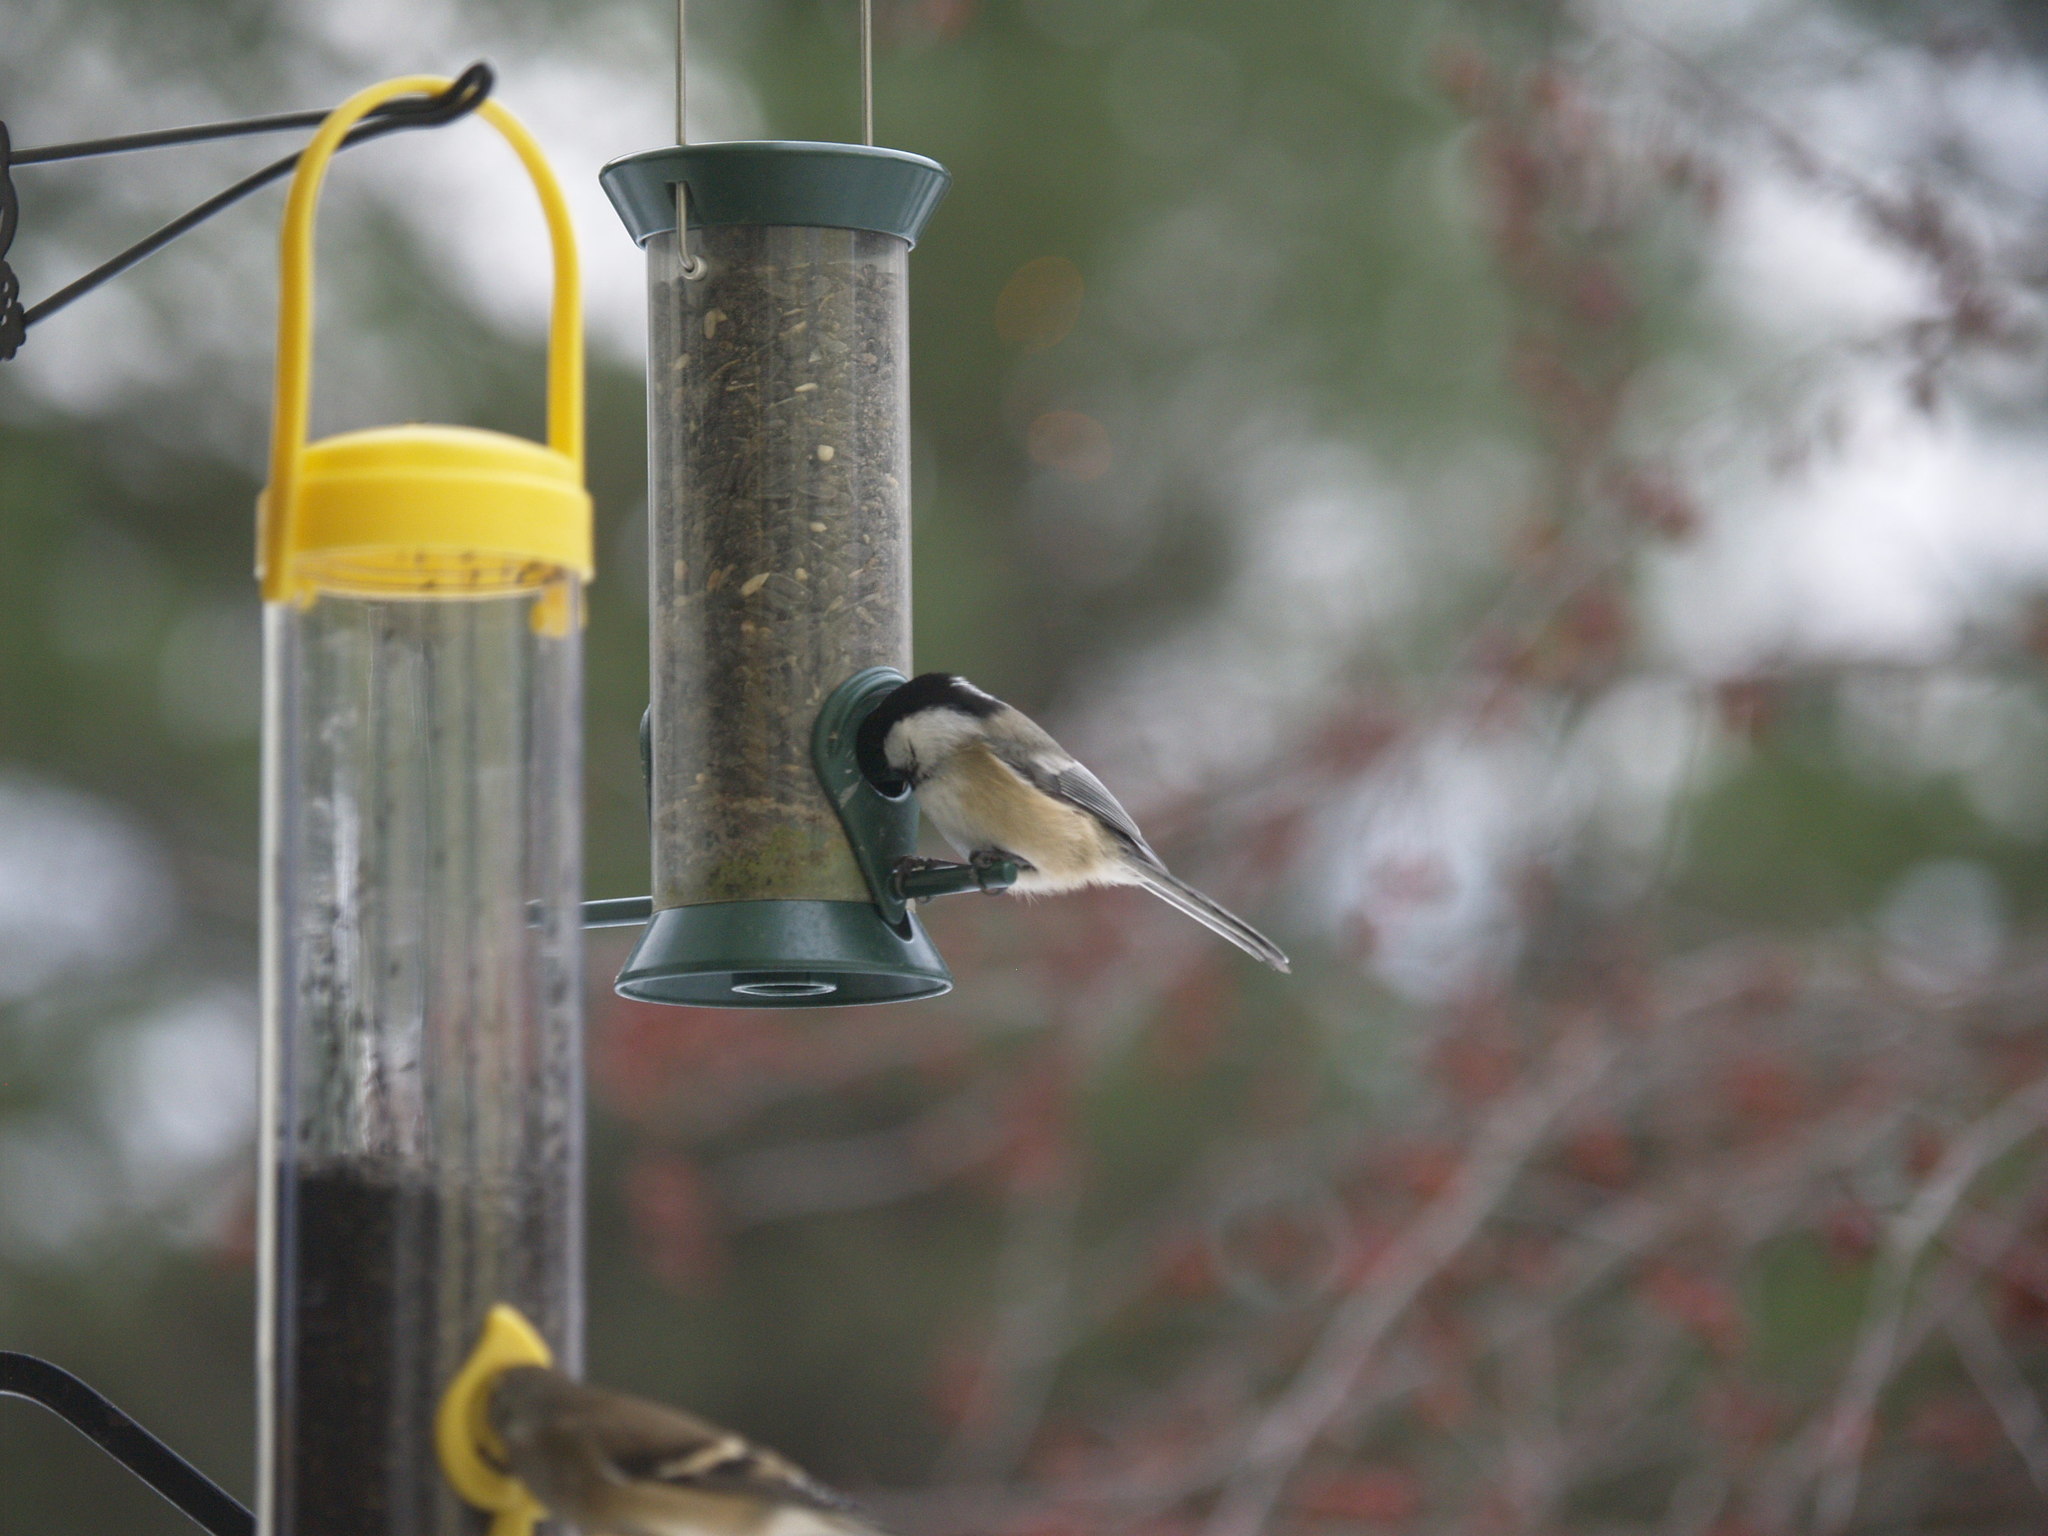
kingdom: Animalia
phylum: Chordata
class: Aves
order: Passeriformes
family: Paridae
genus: Poecile
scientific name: Poecile atricapillus
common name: Black-capped chickadee
